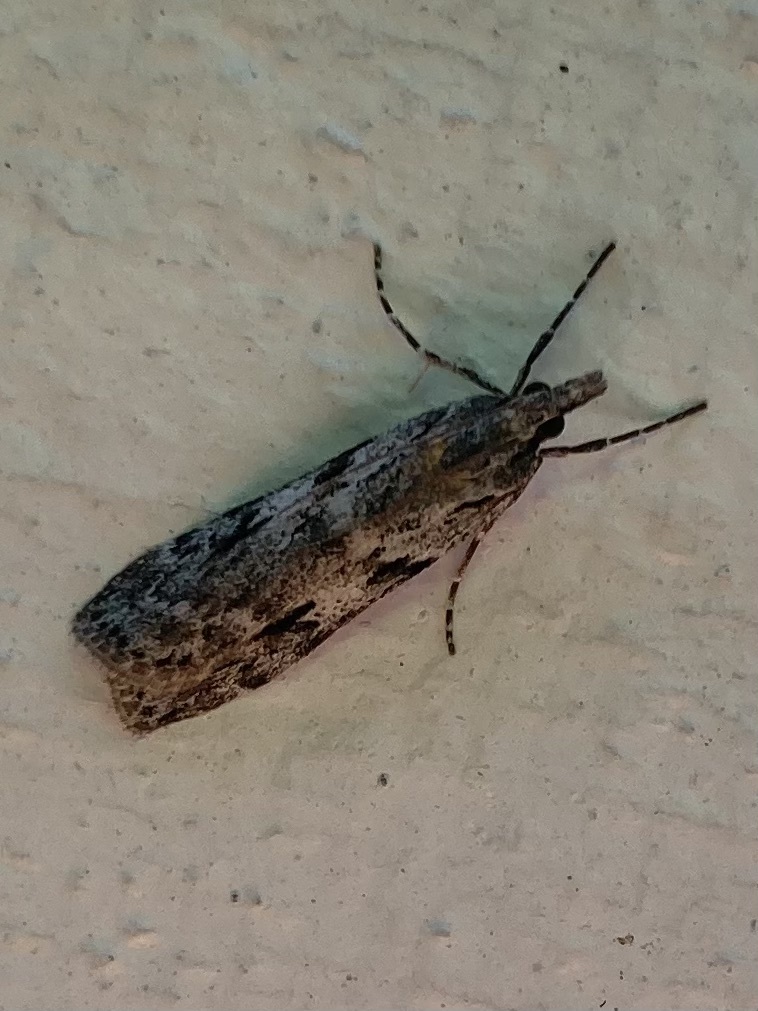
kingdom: Animalia
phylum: Arthropoda
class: Insecta
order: Lepidoptera
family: Crambidae
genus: Scoparia
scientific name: Scoparia halopis
